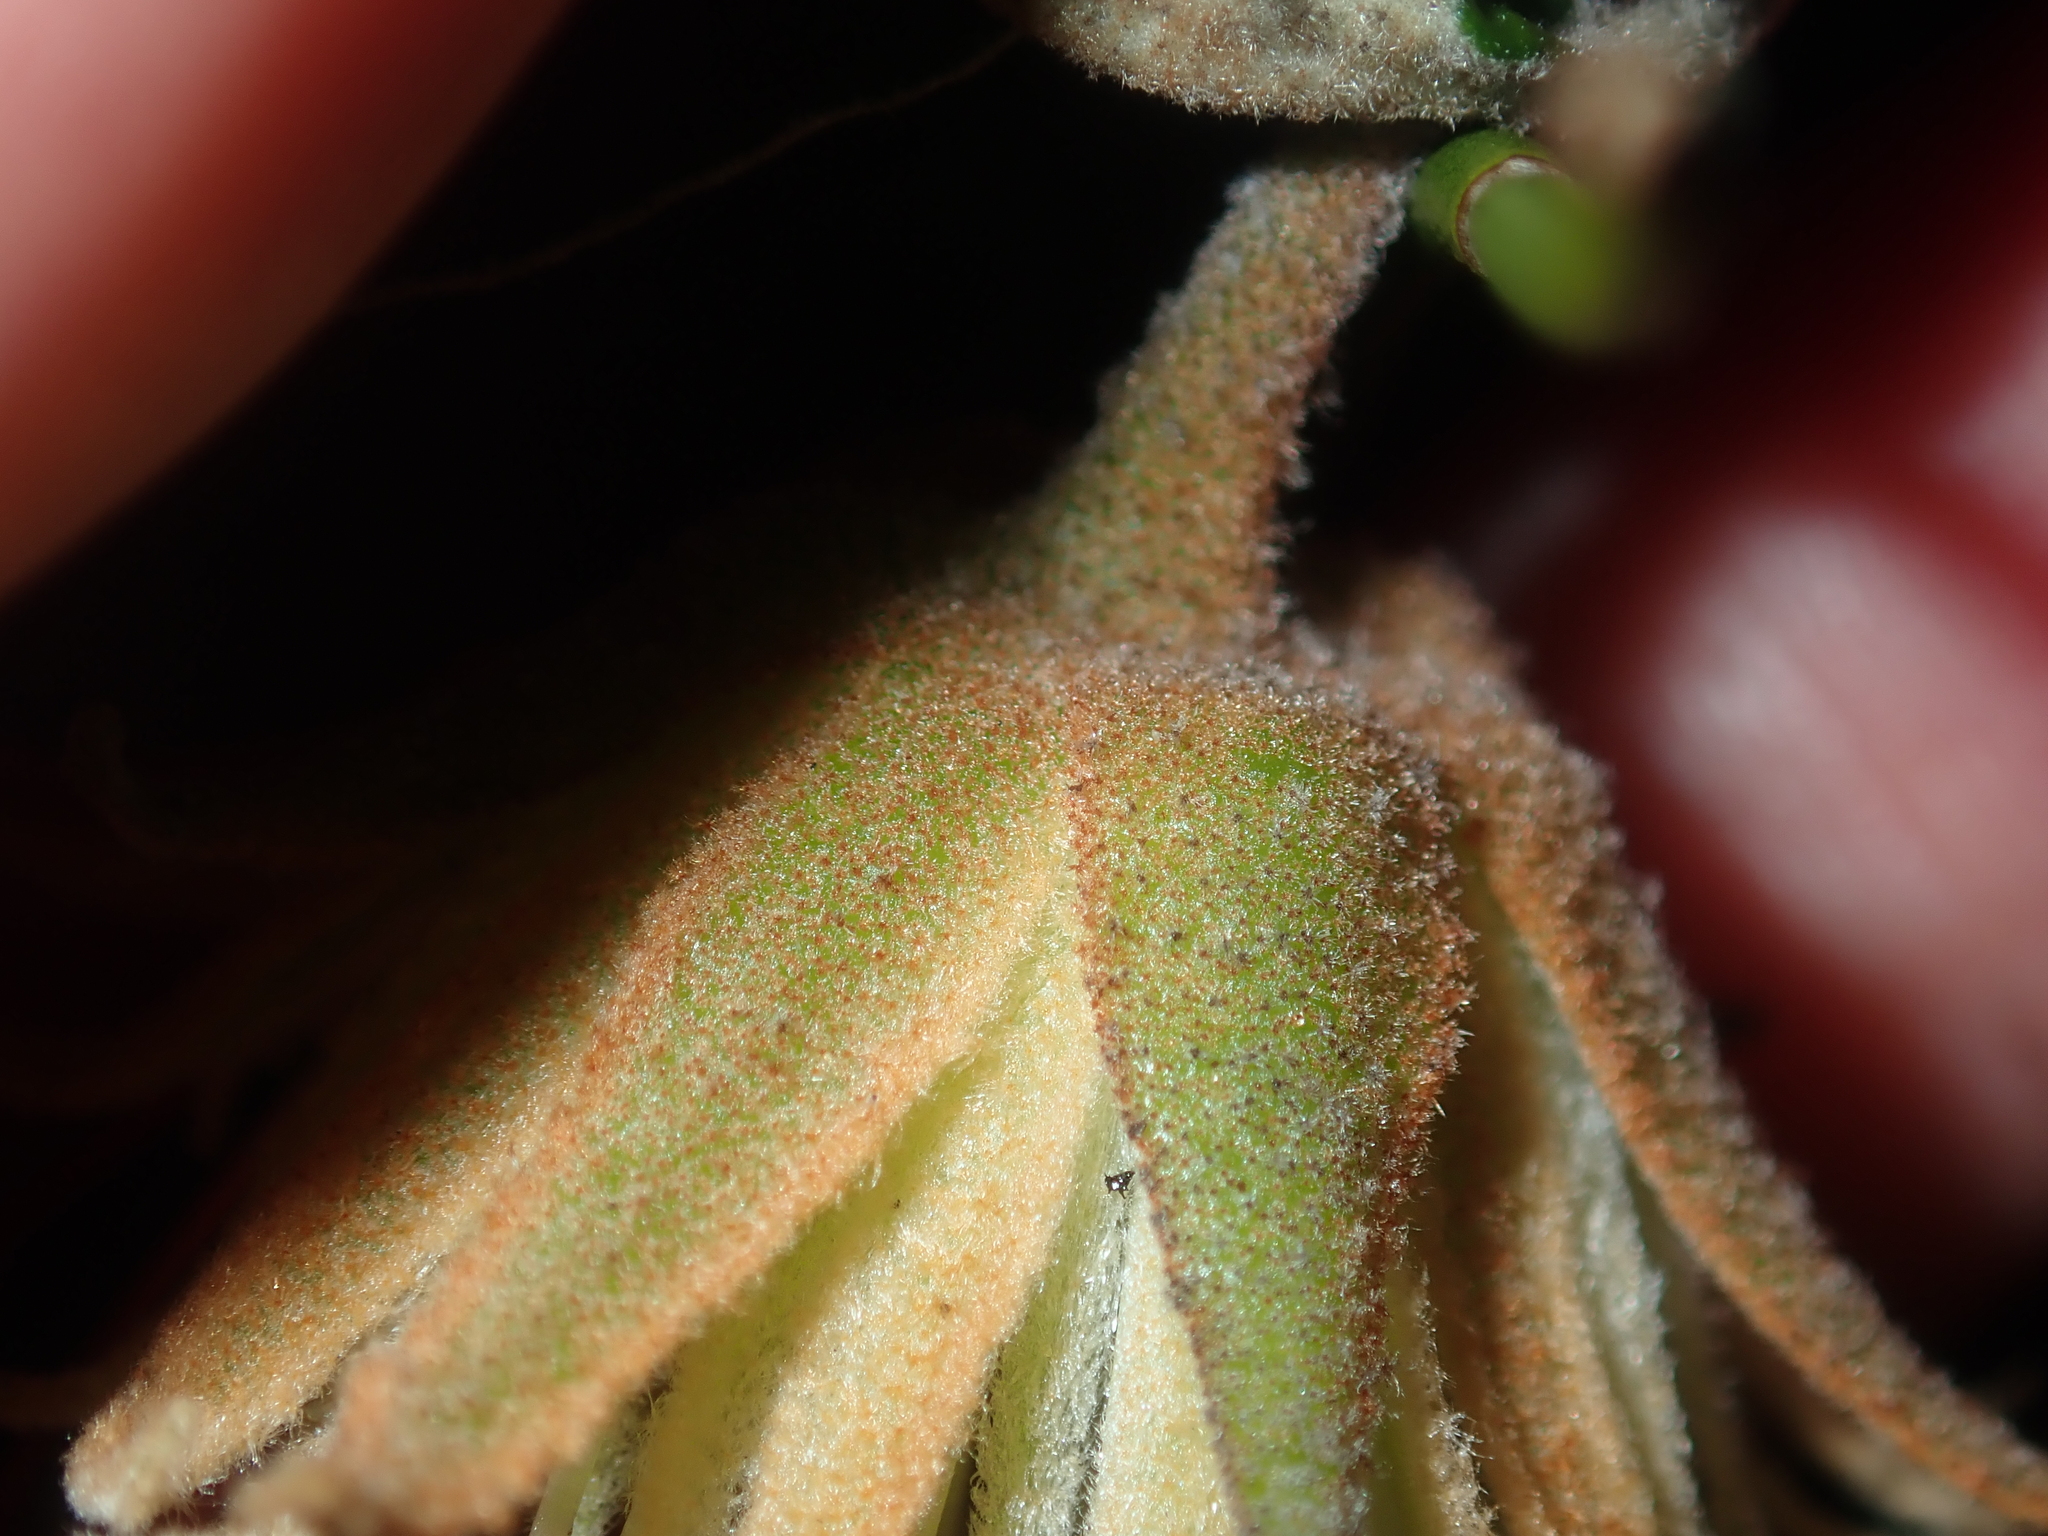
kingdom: Plantae
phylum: Tracheophyta
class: Magnoliopsida
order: Sapindales
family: Rutaceae
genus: Diplolaena
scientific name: Diplolaena eneabbensis
